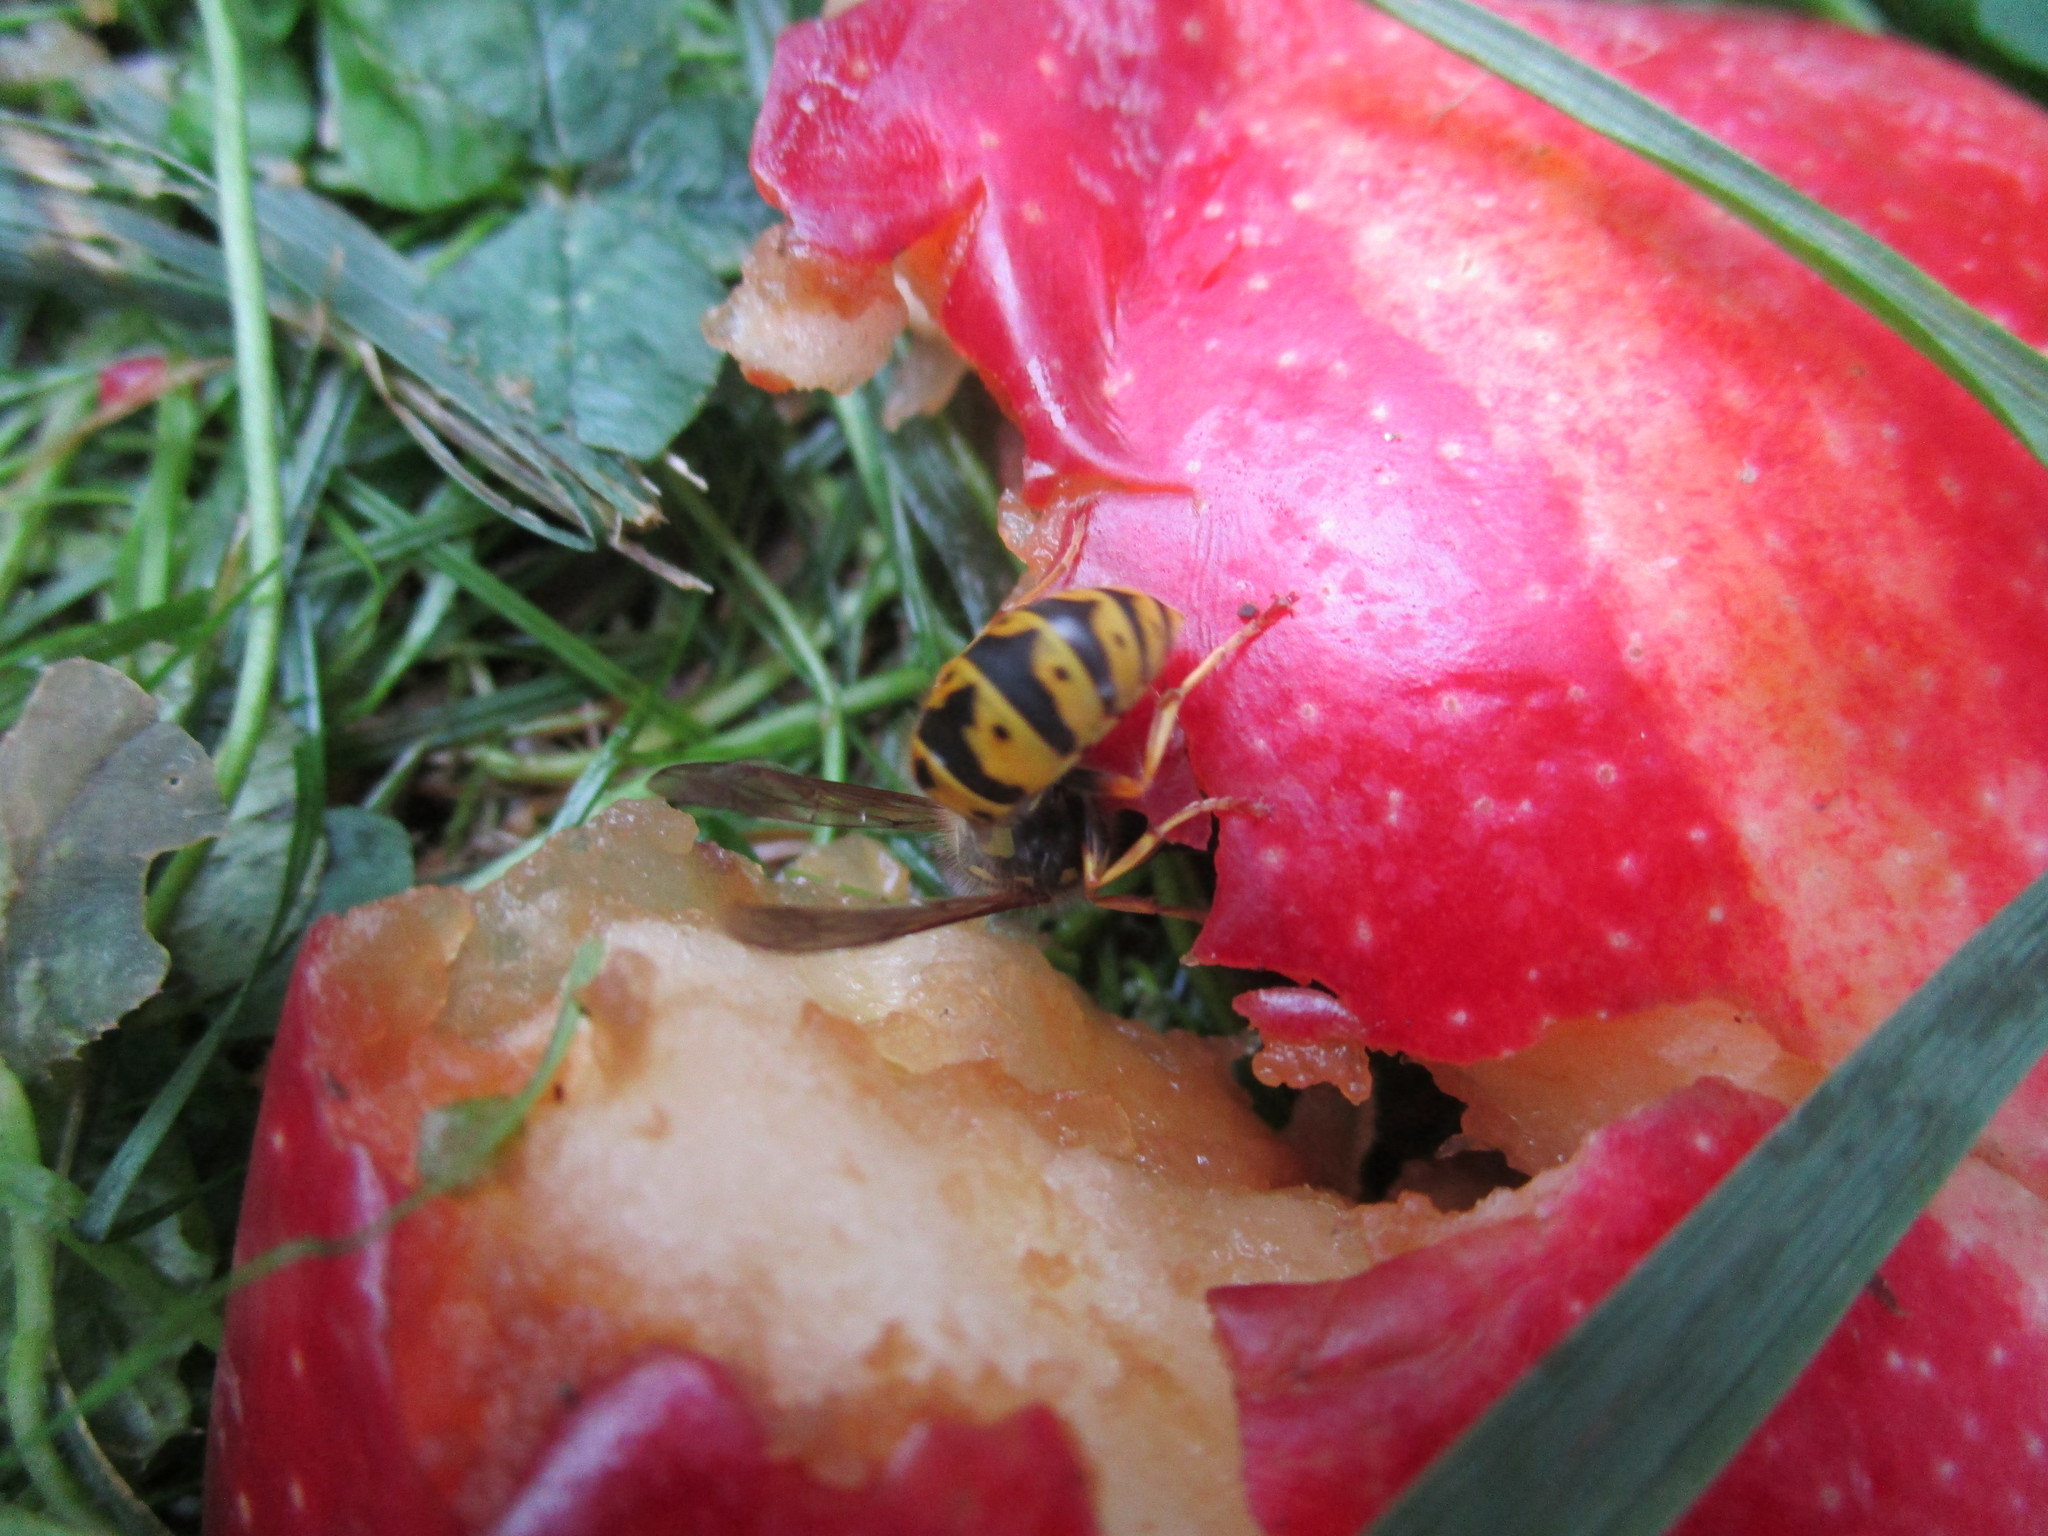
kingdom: Animalia
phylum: Arthropoda
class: Insecta
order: Hymenoptera
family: Vespidae
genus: Vespula
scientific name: Vespula germanica
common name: German wasp
